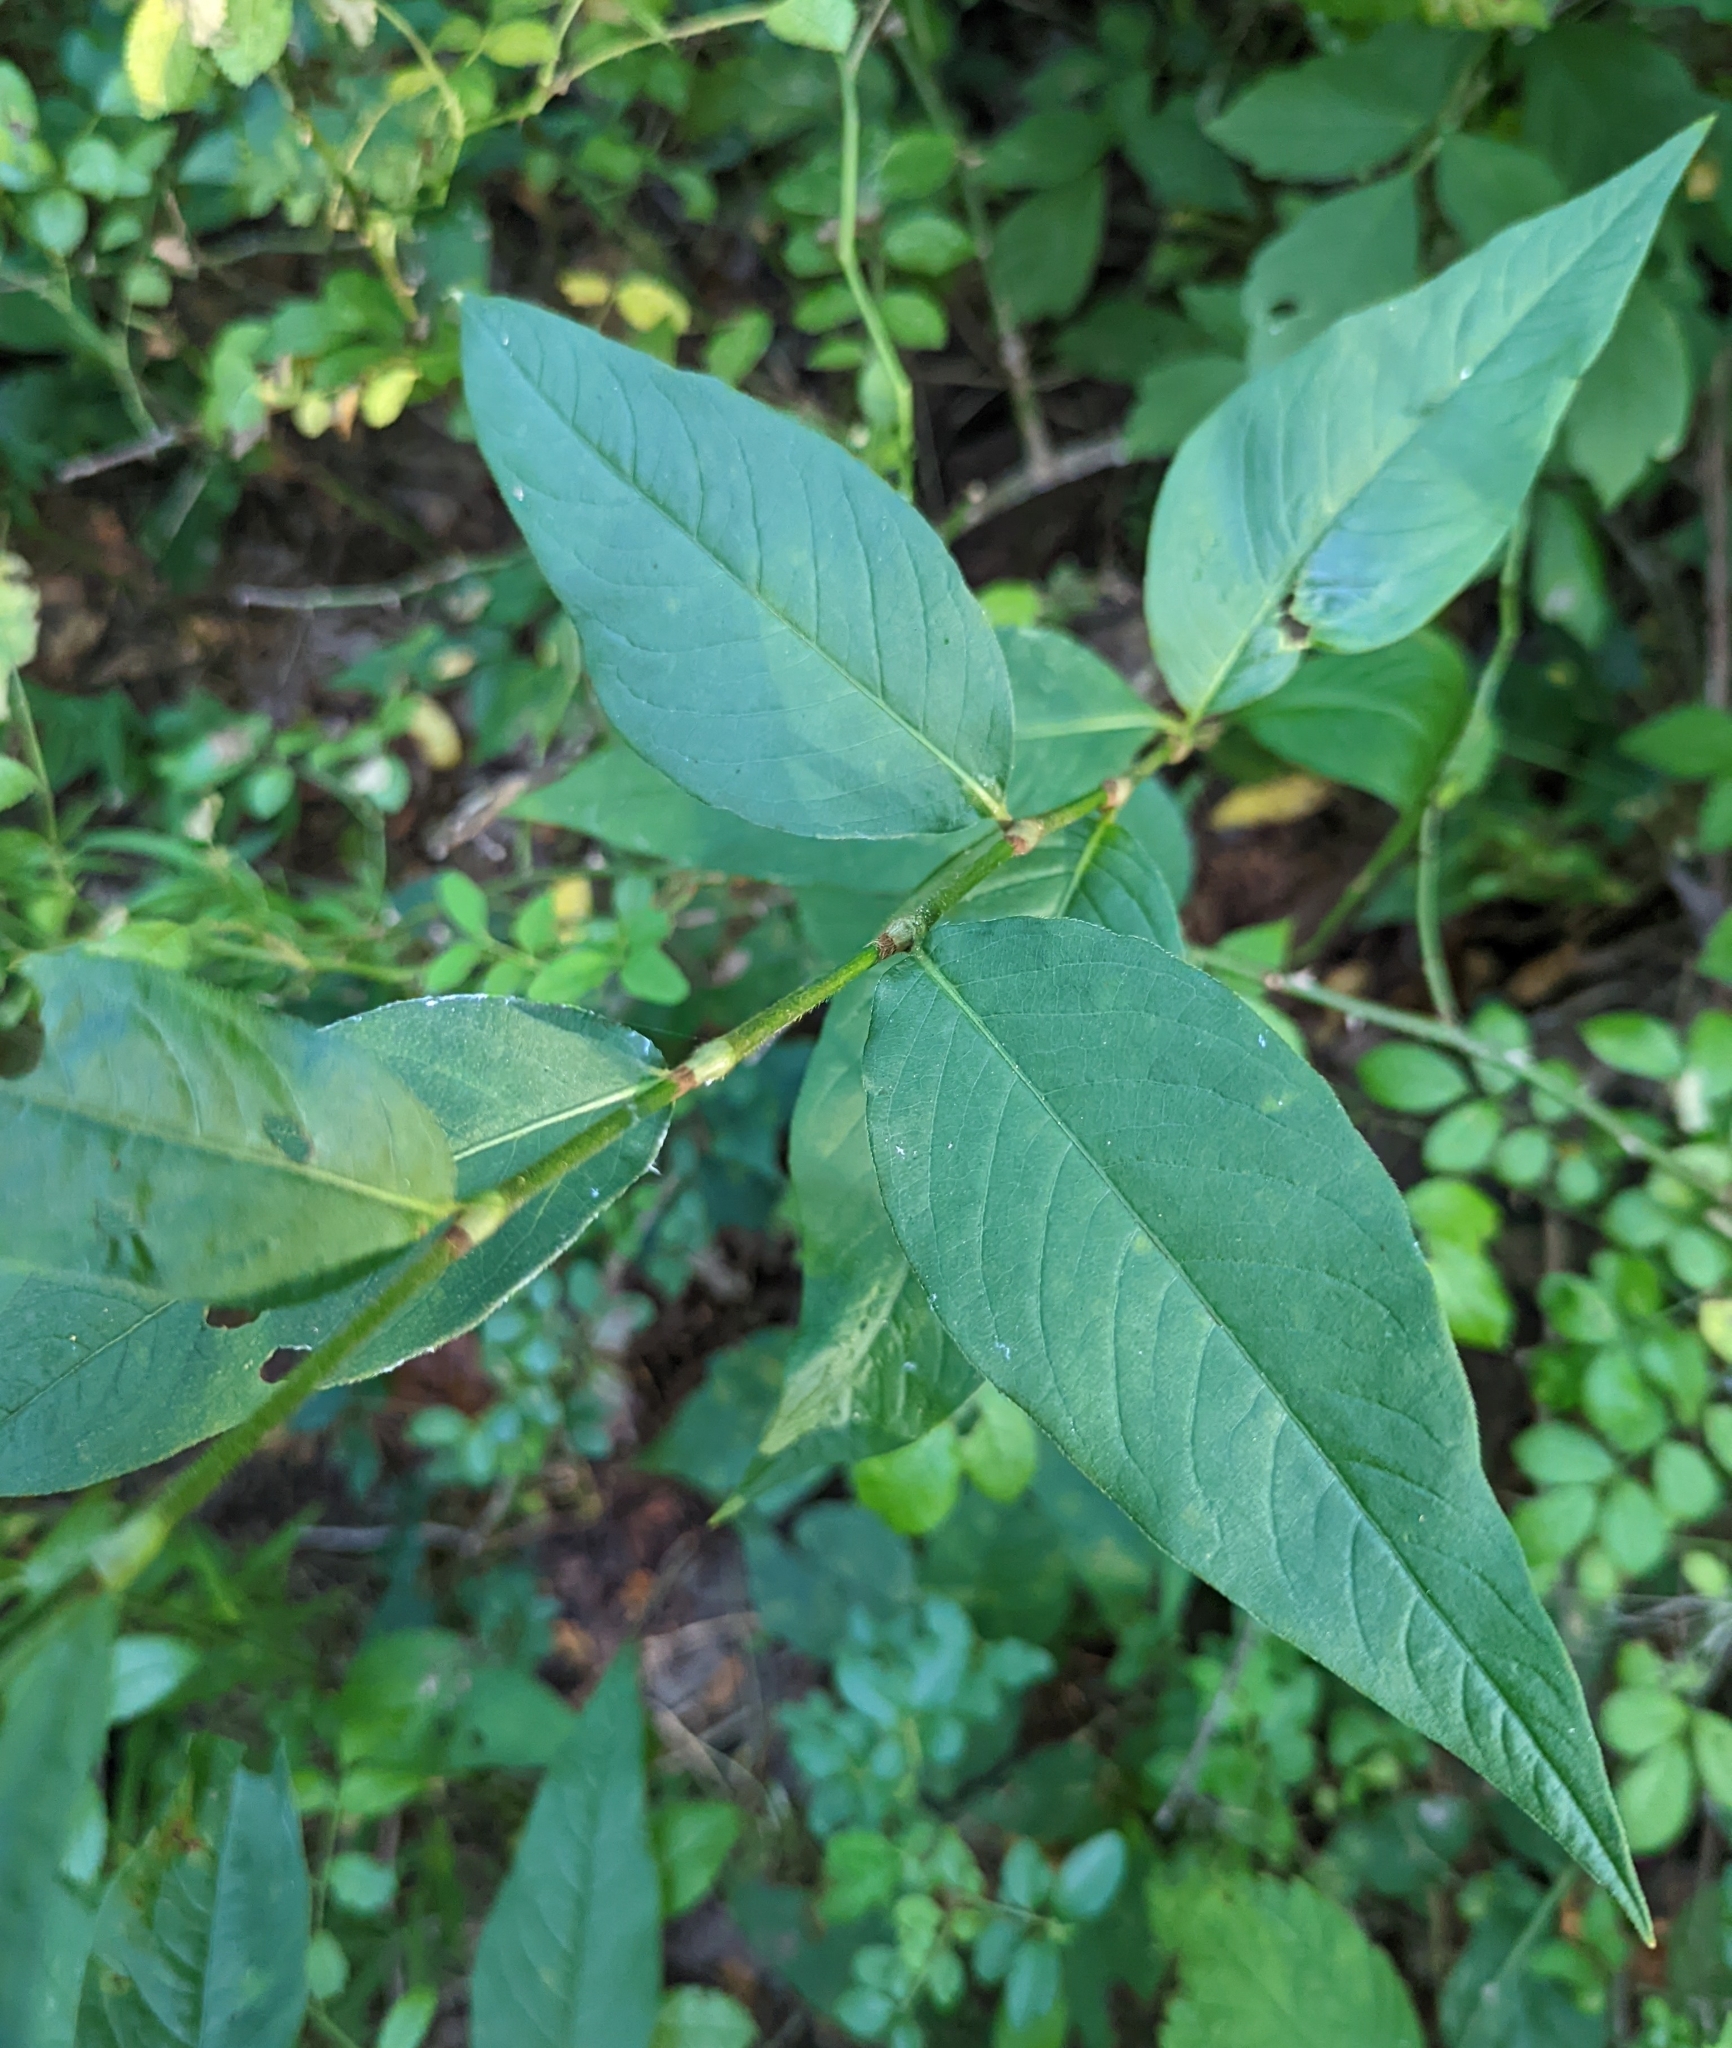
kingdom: Plantae
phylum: Tracheophyta
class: Magnoliopsida
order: Caryophyllales
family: Polygonaceae
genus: Persicaria
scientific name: Persicaria virginiana
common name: Jumpseed
